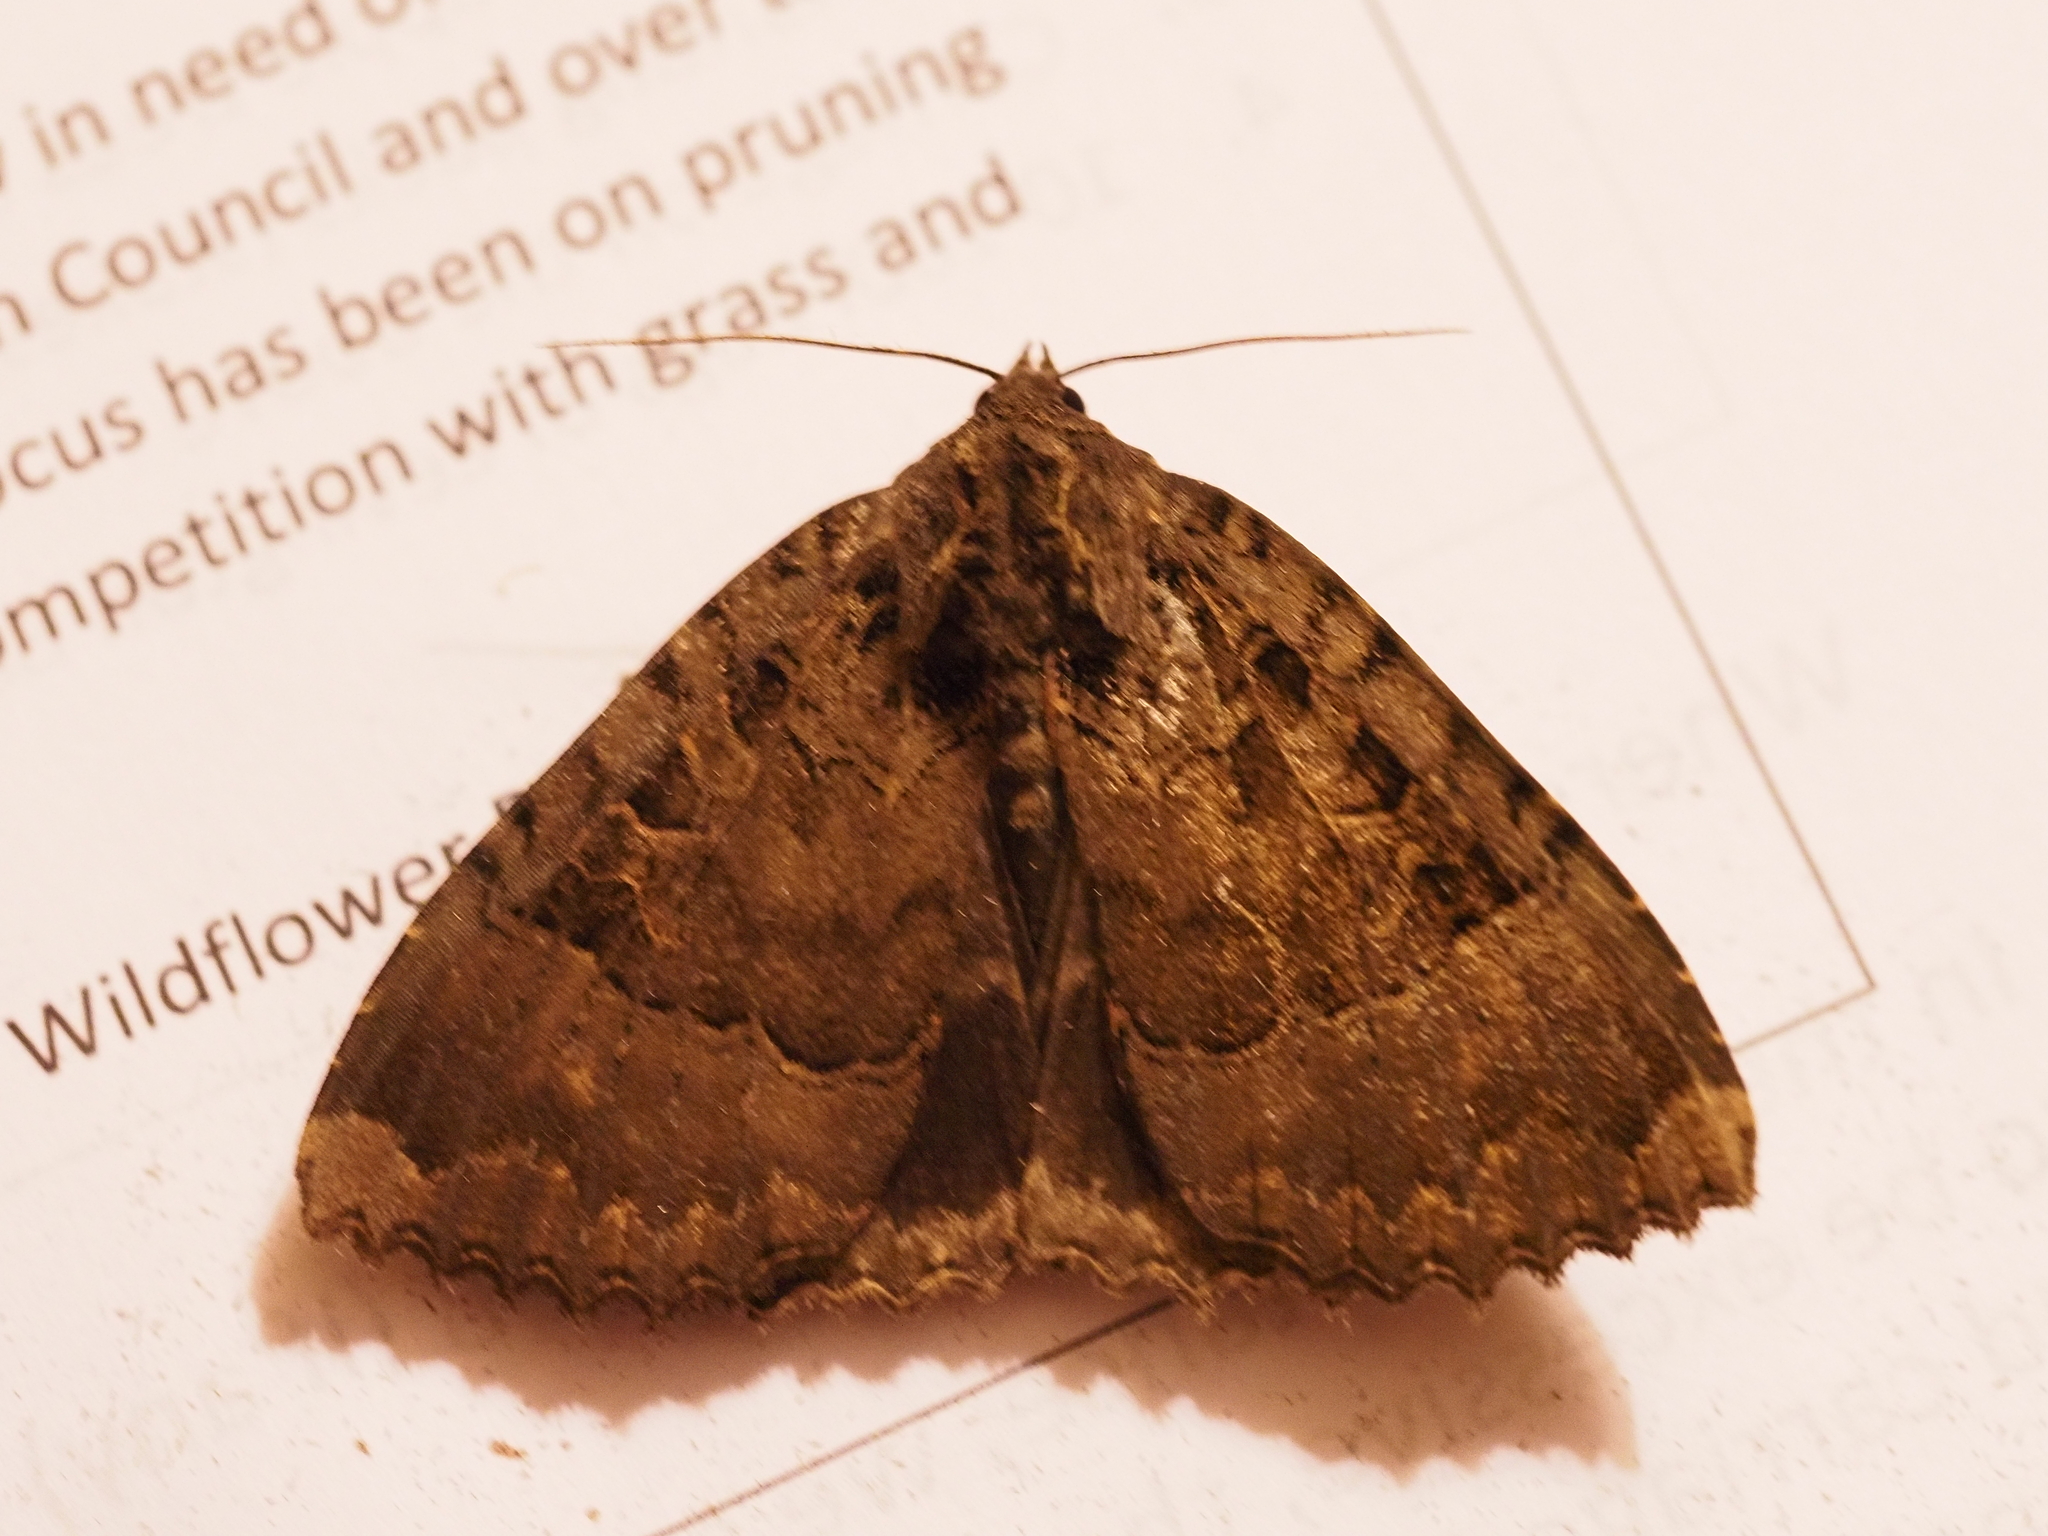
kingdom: Animalia
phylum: Arthropoda
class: Insecta
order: Lepidoptera
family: Noctuidae
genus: Mormo
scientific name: Mormo maura
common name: Old lady
